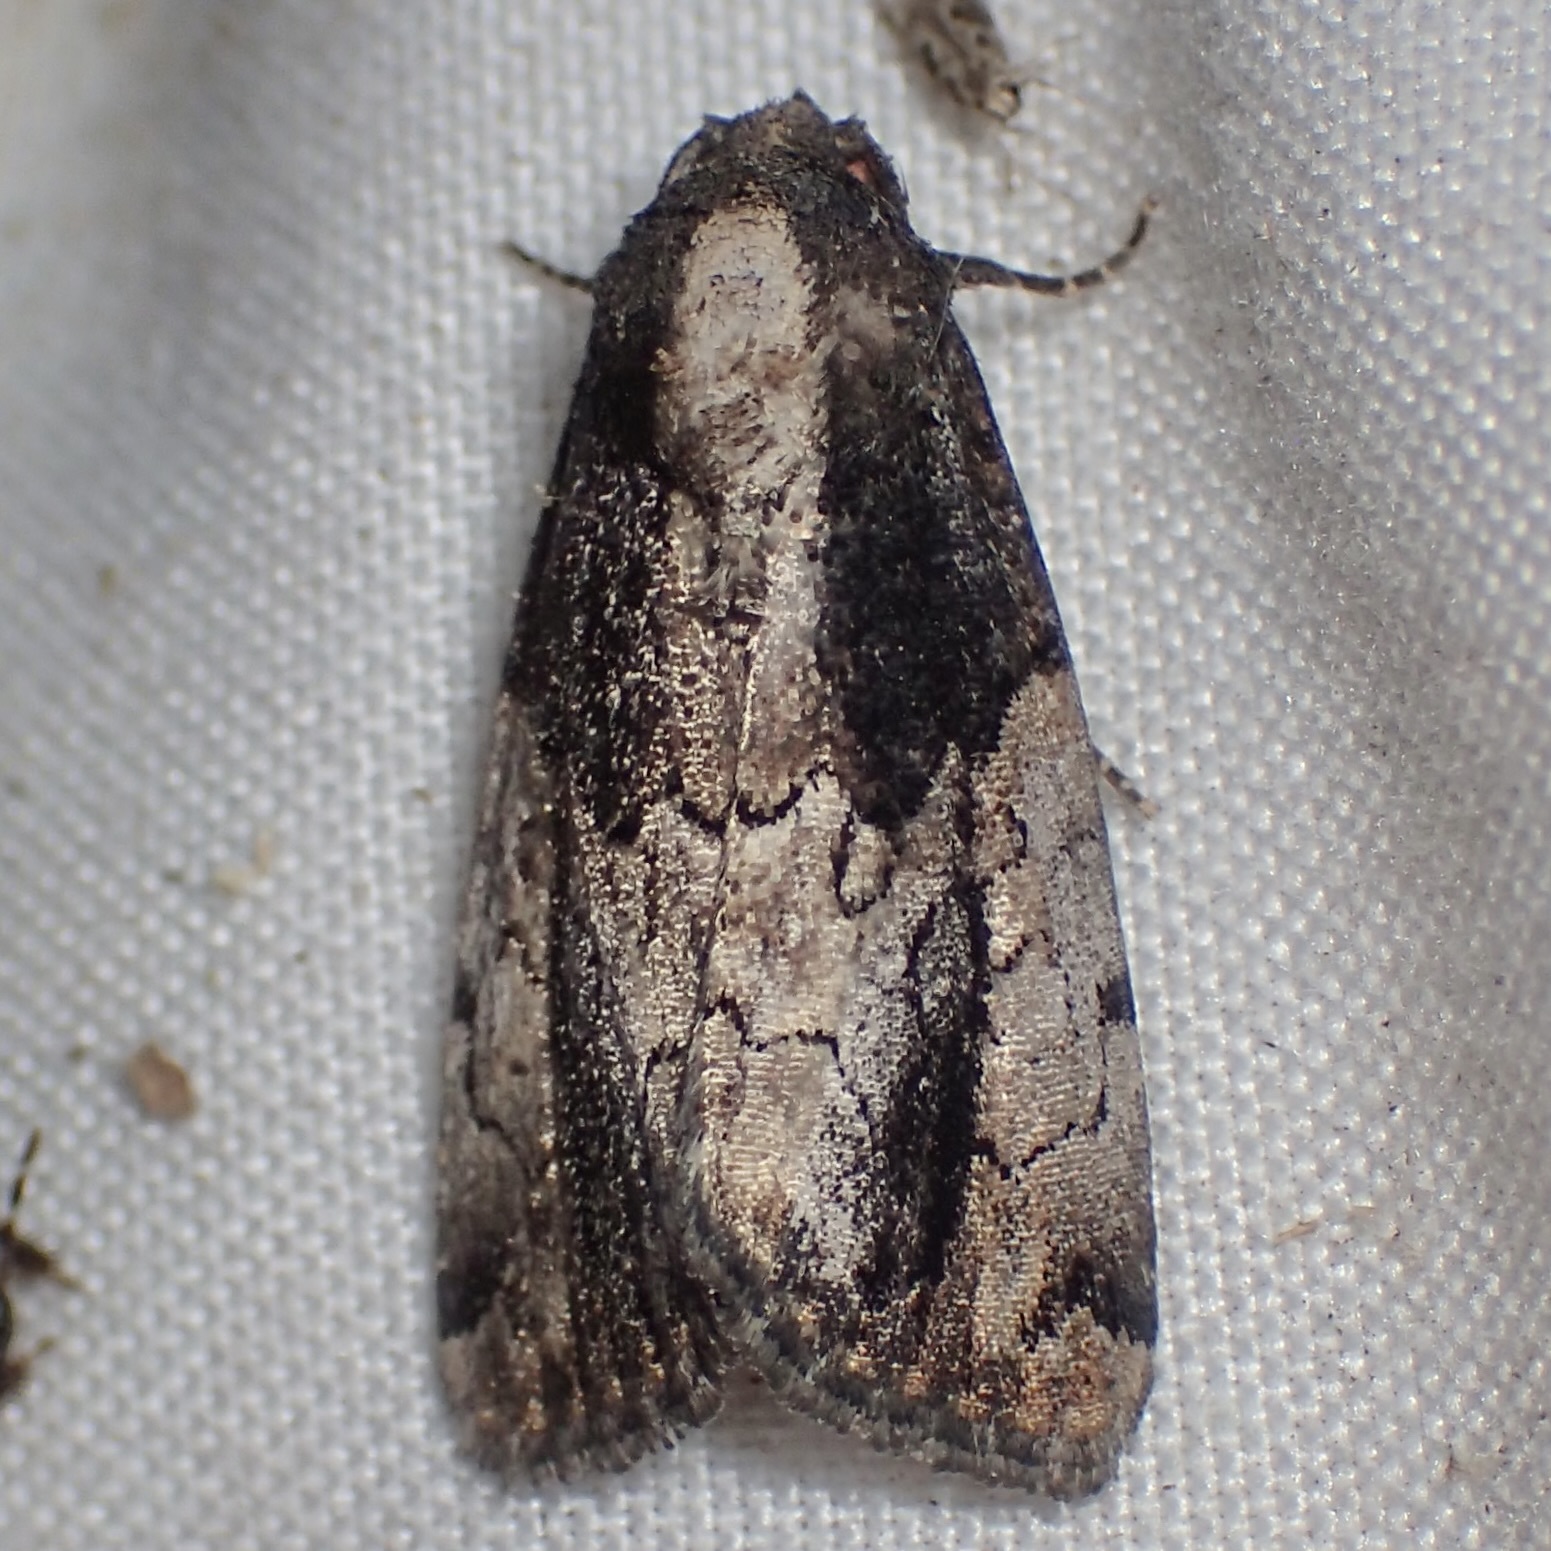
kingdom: Animalia
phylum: Arthropoda
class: Insecta
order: Lepidoptera
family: Noctuidae
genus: Bryolymnia
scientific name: Bryolymnia anthracitaria
